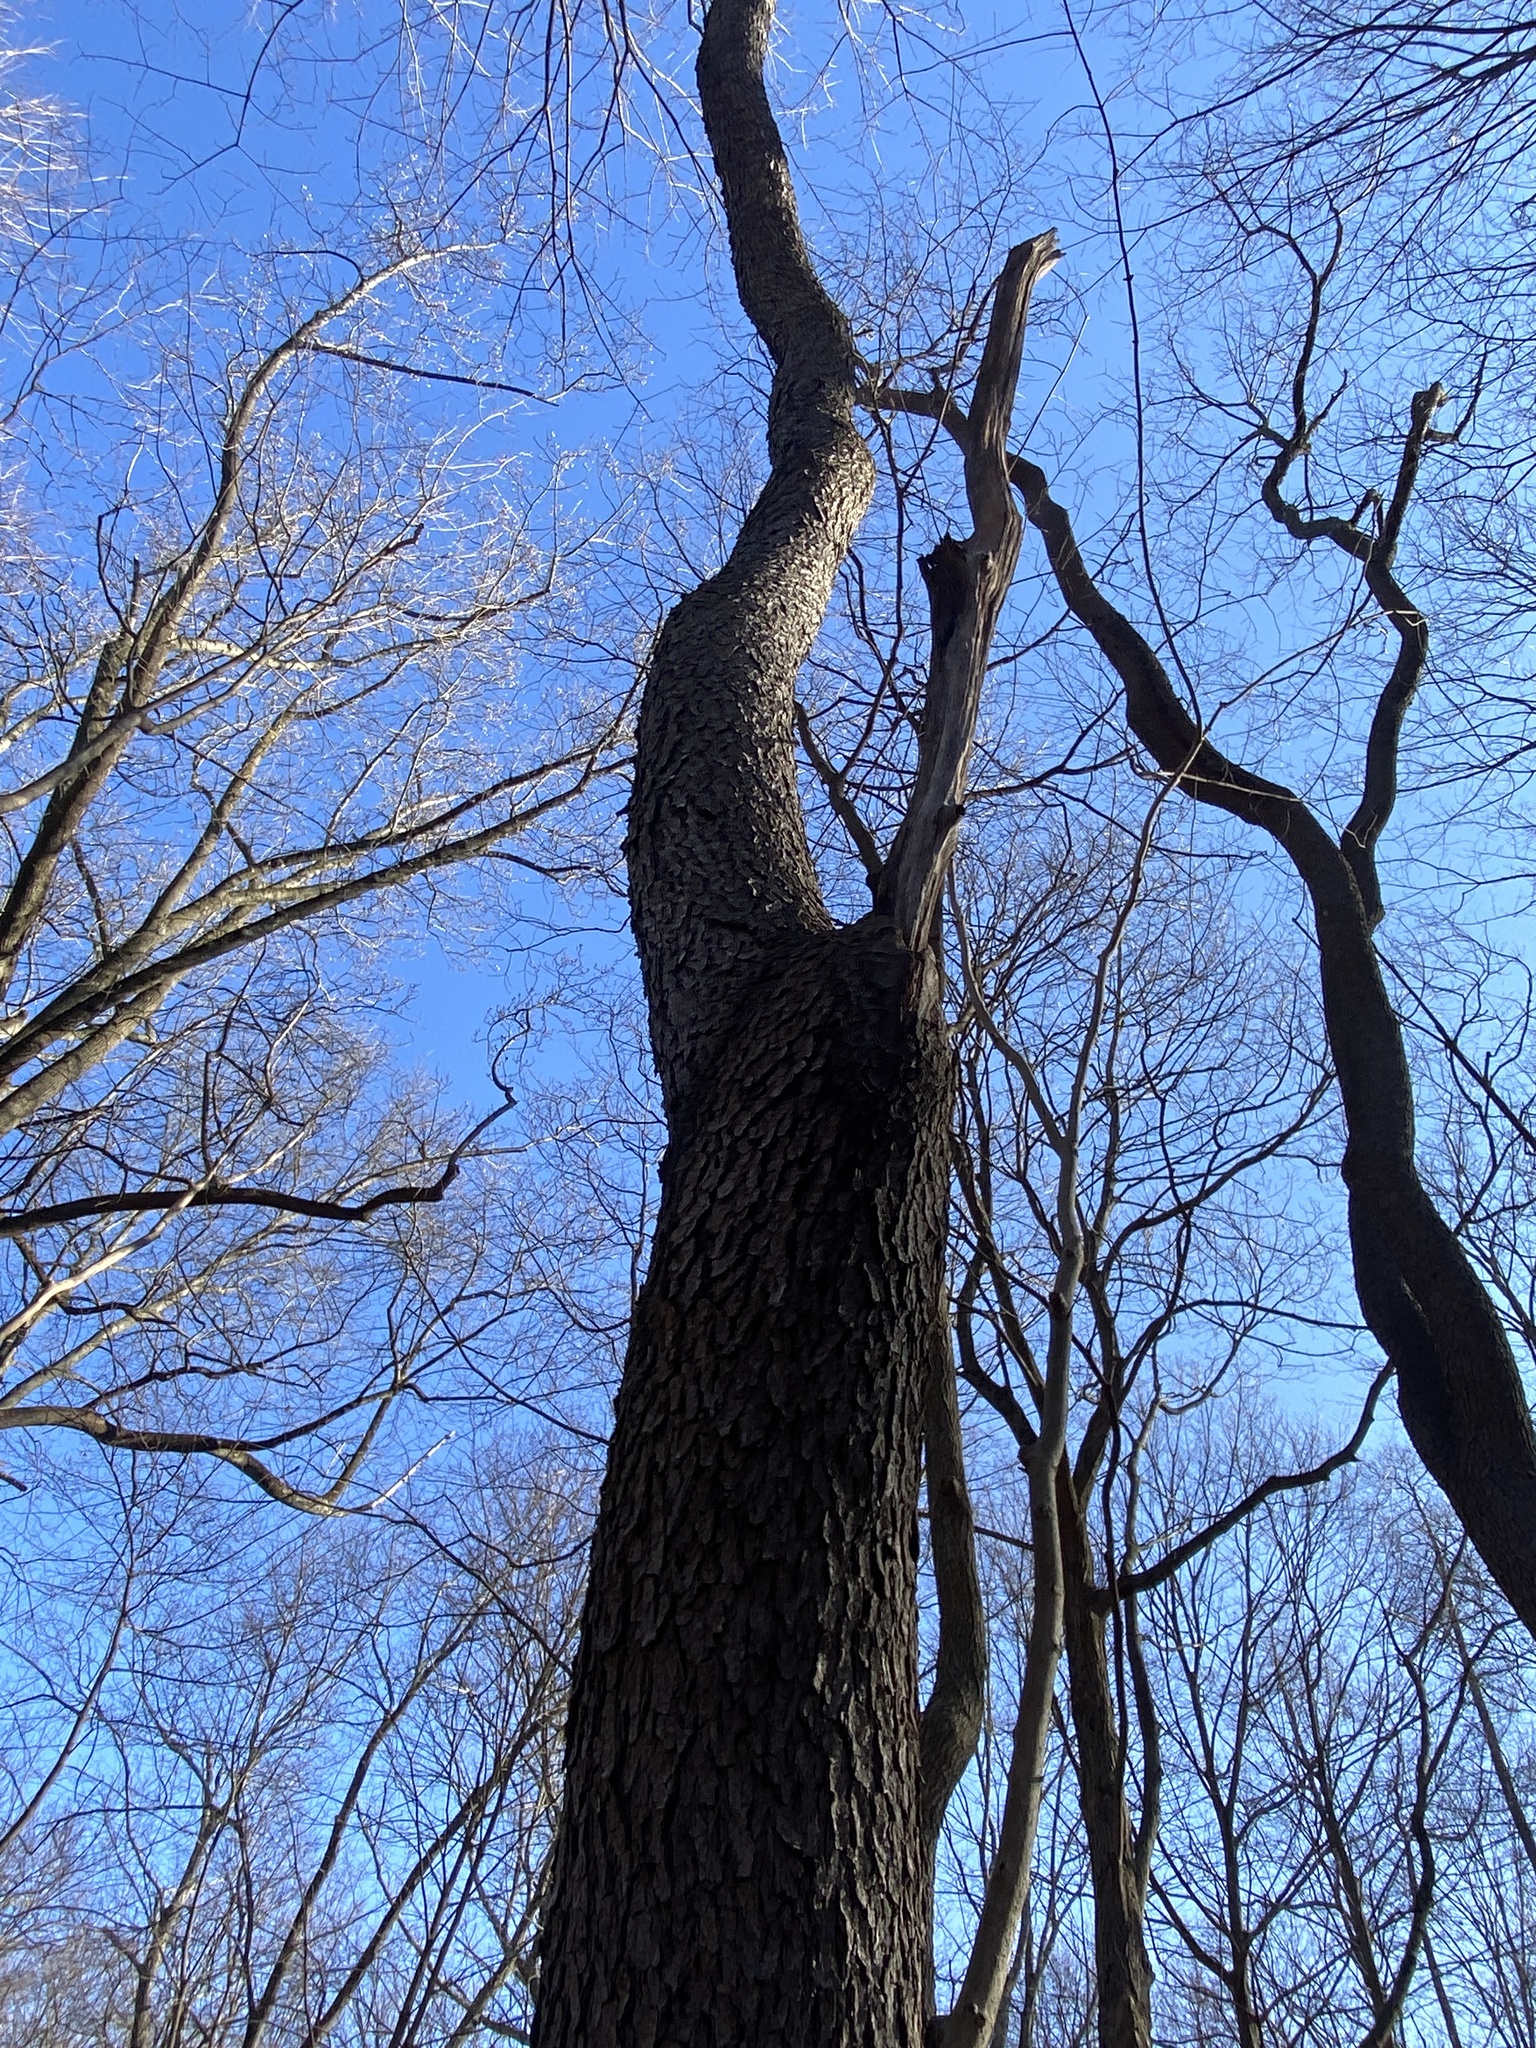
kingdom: Plantae
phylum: Tracheophyta
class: Magnoliopsida
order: Rosales
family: Rosaceae
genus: Prunus
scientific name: Prunus serotina
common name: Black cherry
